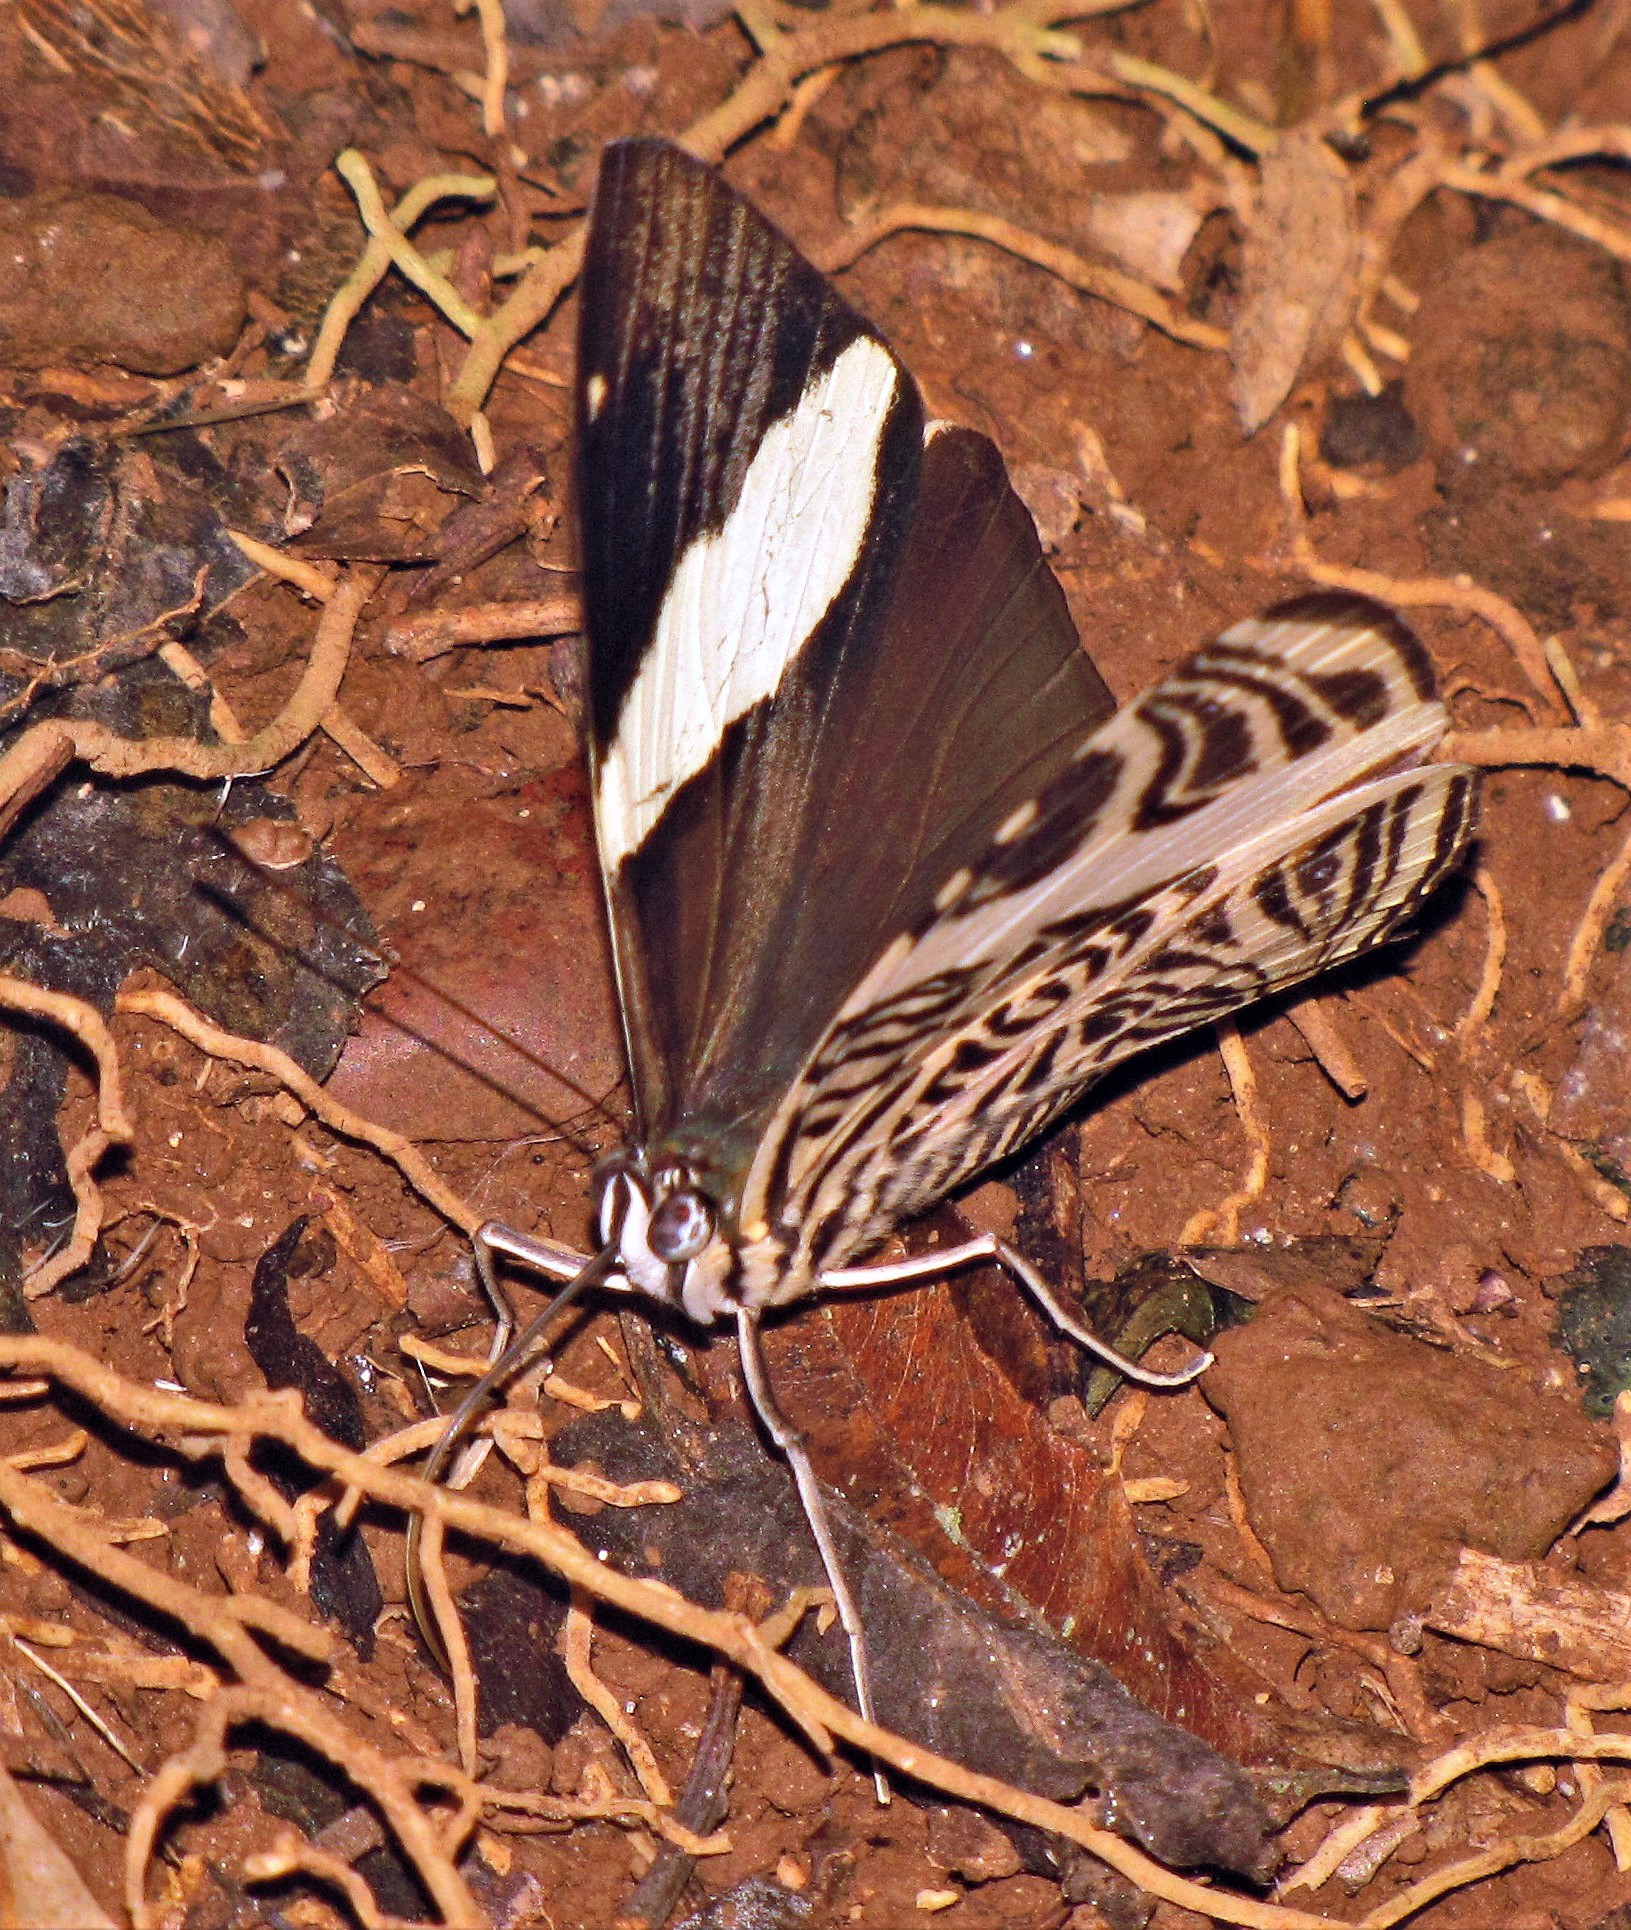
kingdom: Animalia
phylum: Arthropoda
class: Insecta
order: Lepidoptera
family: Nymphalidae
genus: Colobura
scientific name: Colobura dirce
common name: Dirce beauty
